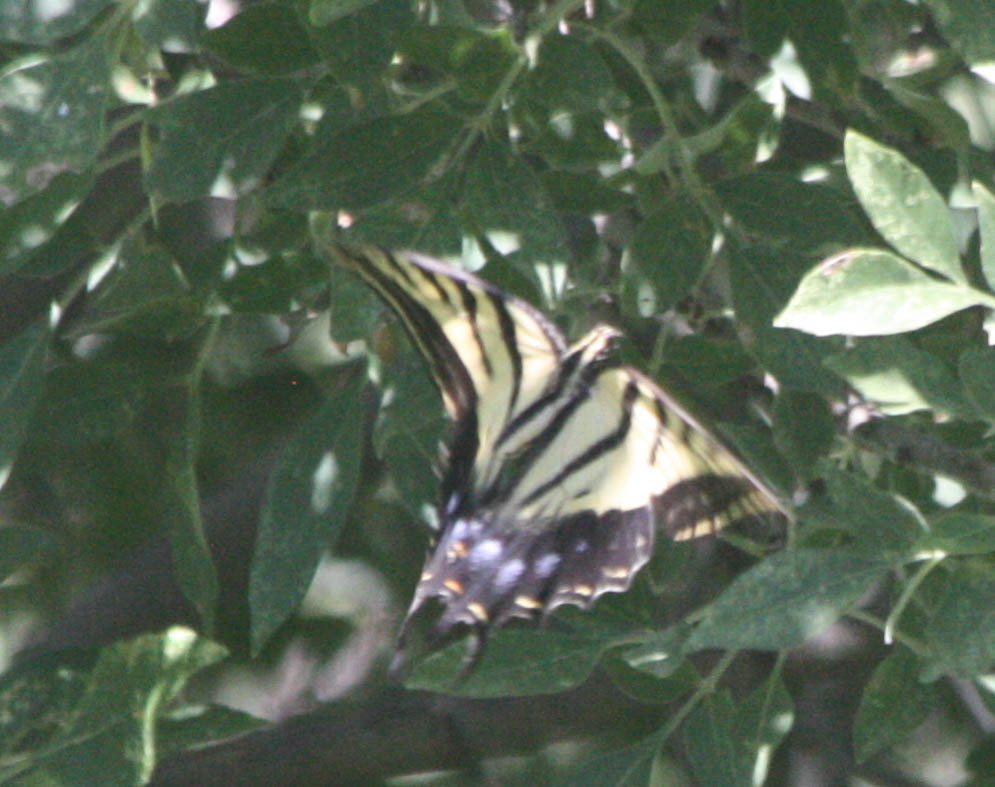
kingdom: Animalia
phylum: Arthropoda
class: Insecta
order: Lepidoptera
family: Papilionidae
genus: Papilio
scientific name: Papilio multicaudata
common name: Two-tailed tiger swallowtail
